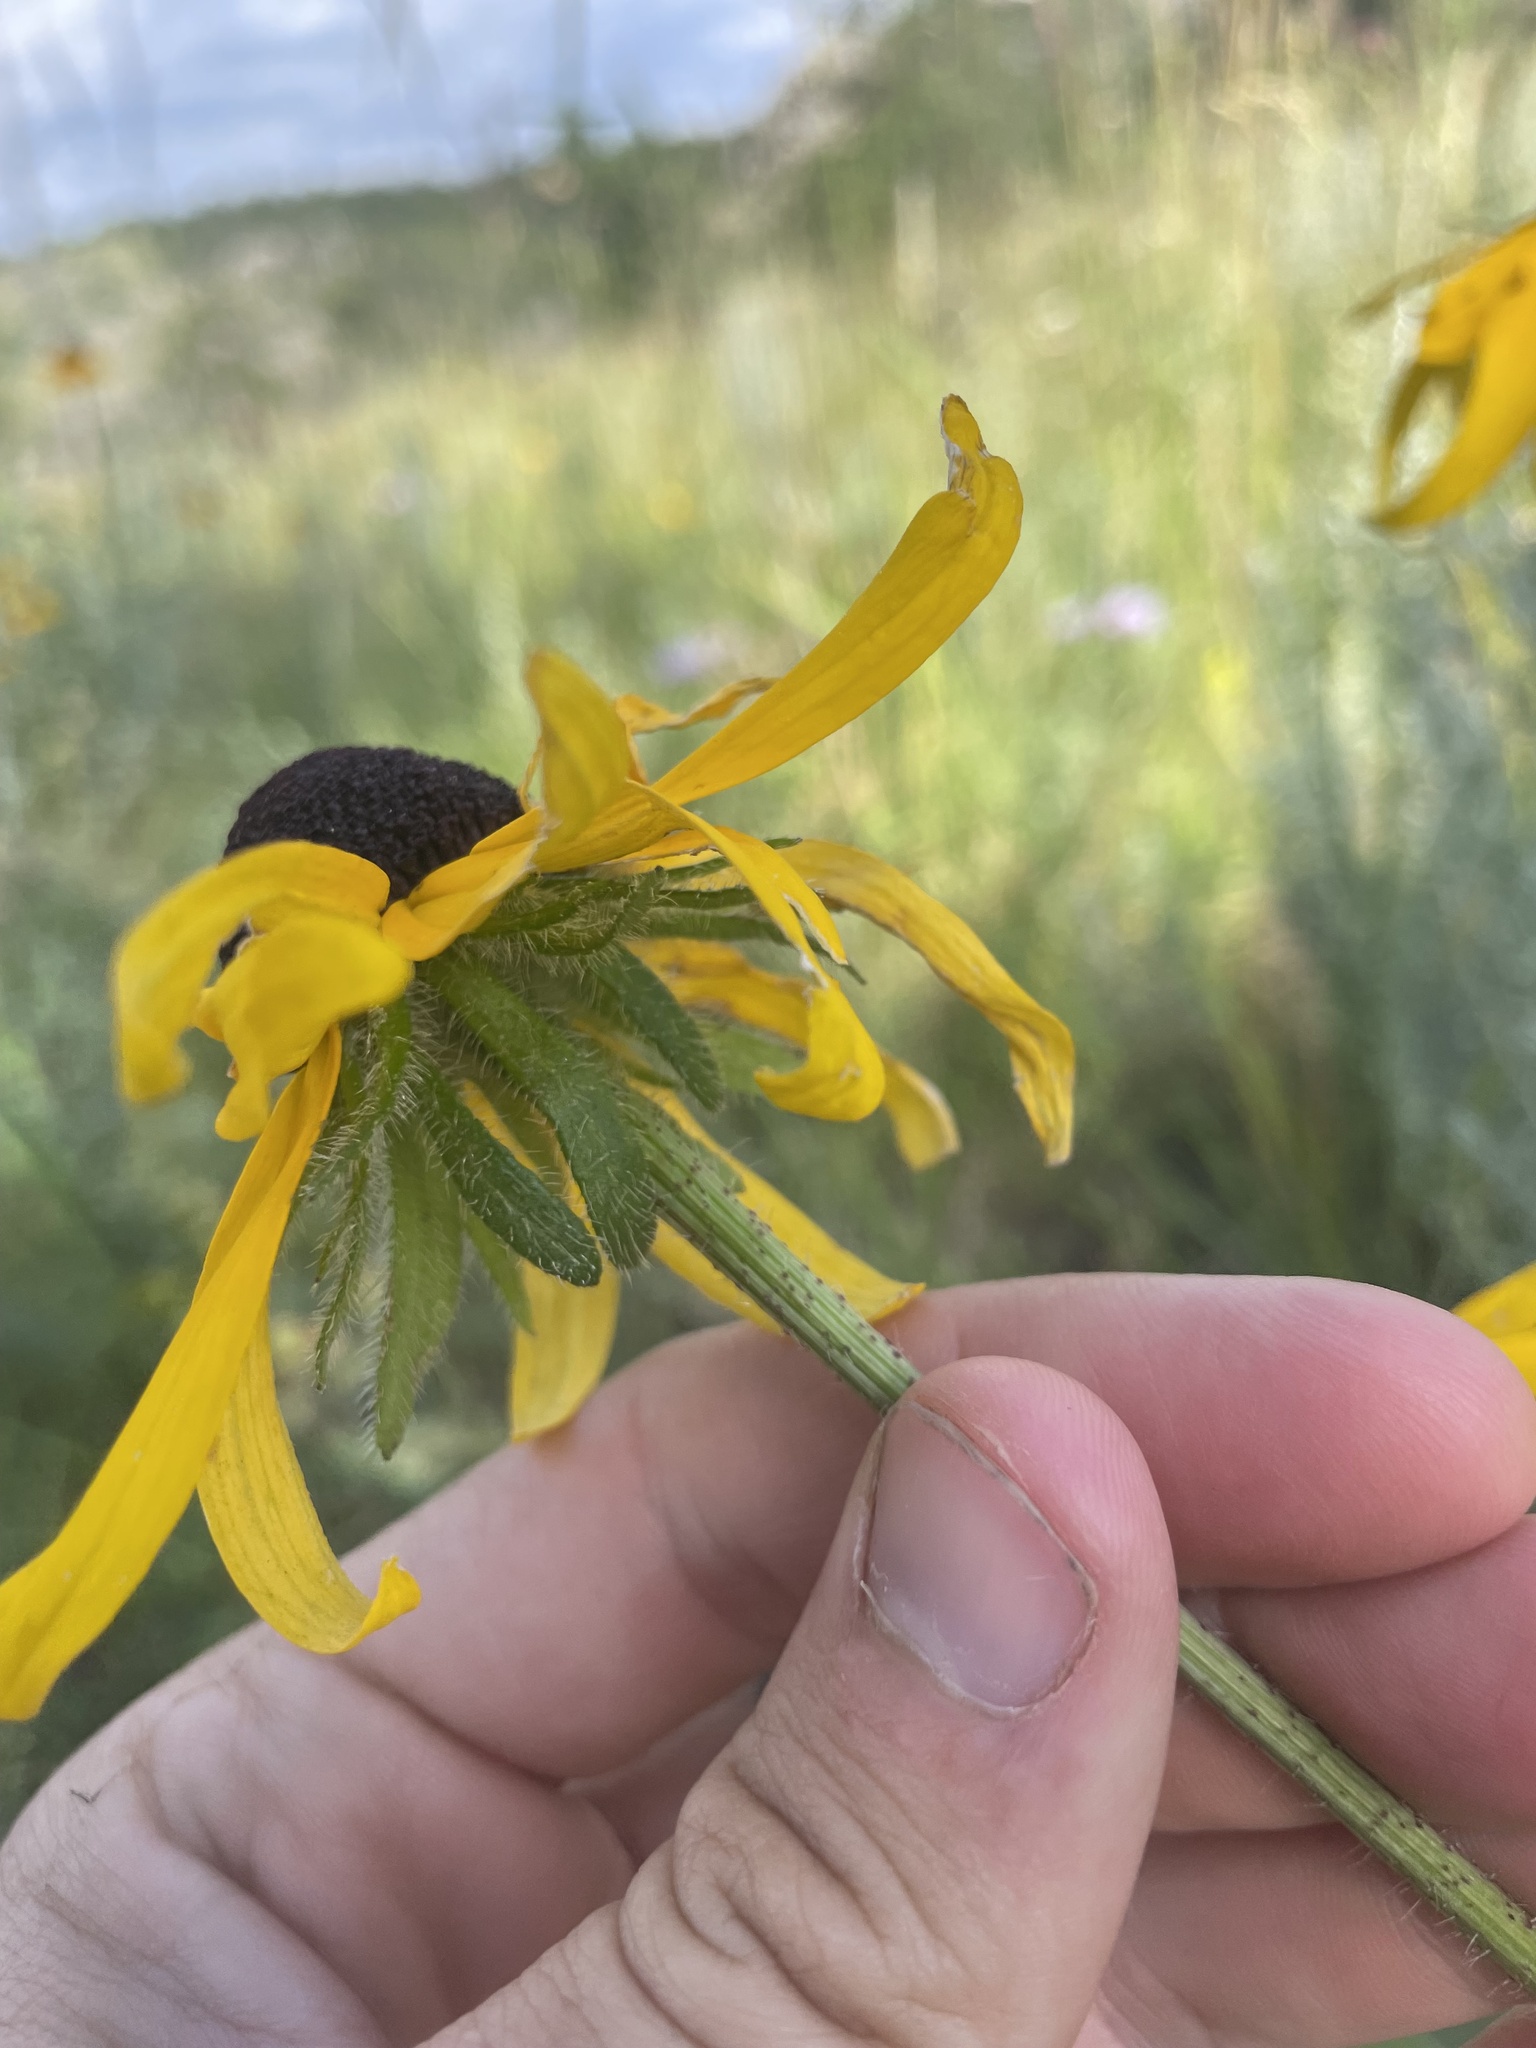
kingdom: Plantae
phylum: Tracheophyta
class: Magnoliopsida
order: Asterales
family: Asteraceae
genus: Rudbeckia
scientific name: Rudbeckia hirta
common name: Black-eyed-susan
